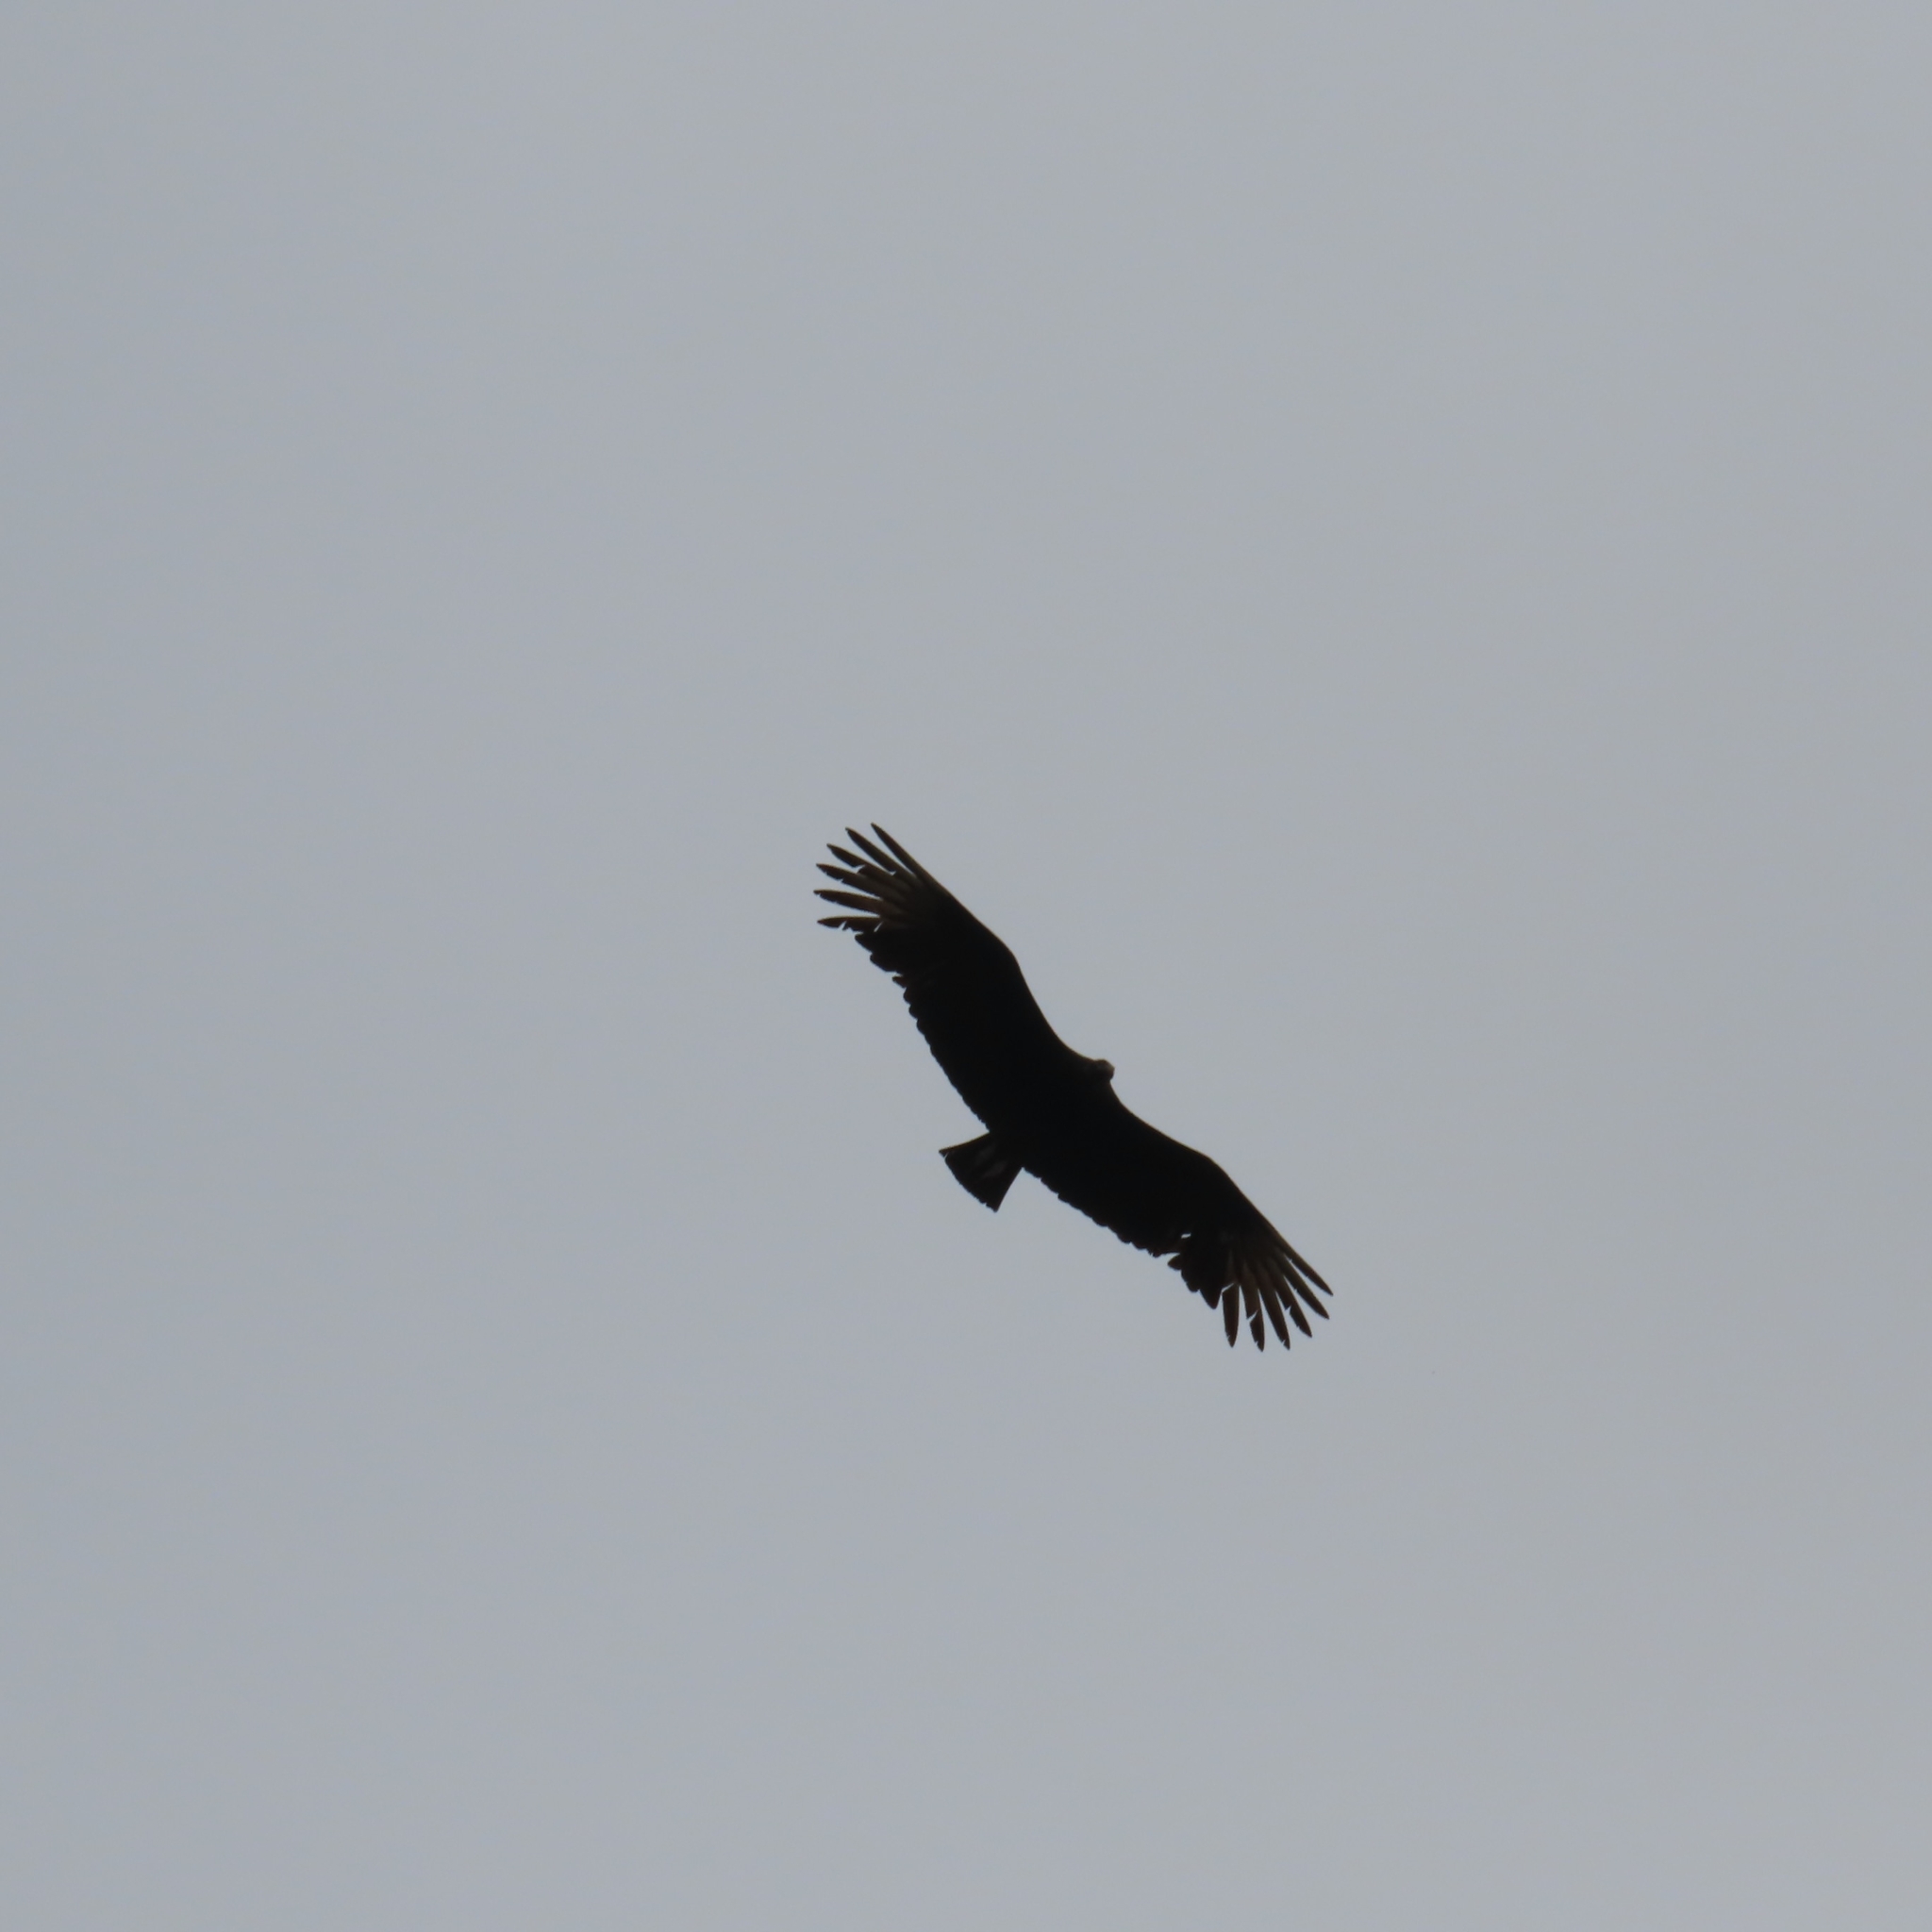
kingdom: Animalia
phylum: Chordata
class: Aves
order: Accipitriformes
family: Cathartidae
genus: Coragyps
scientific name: Coragyps atratus
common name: Black vulture
